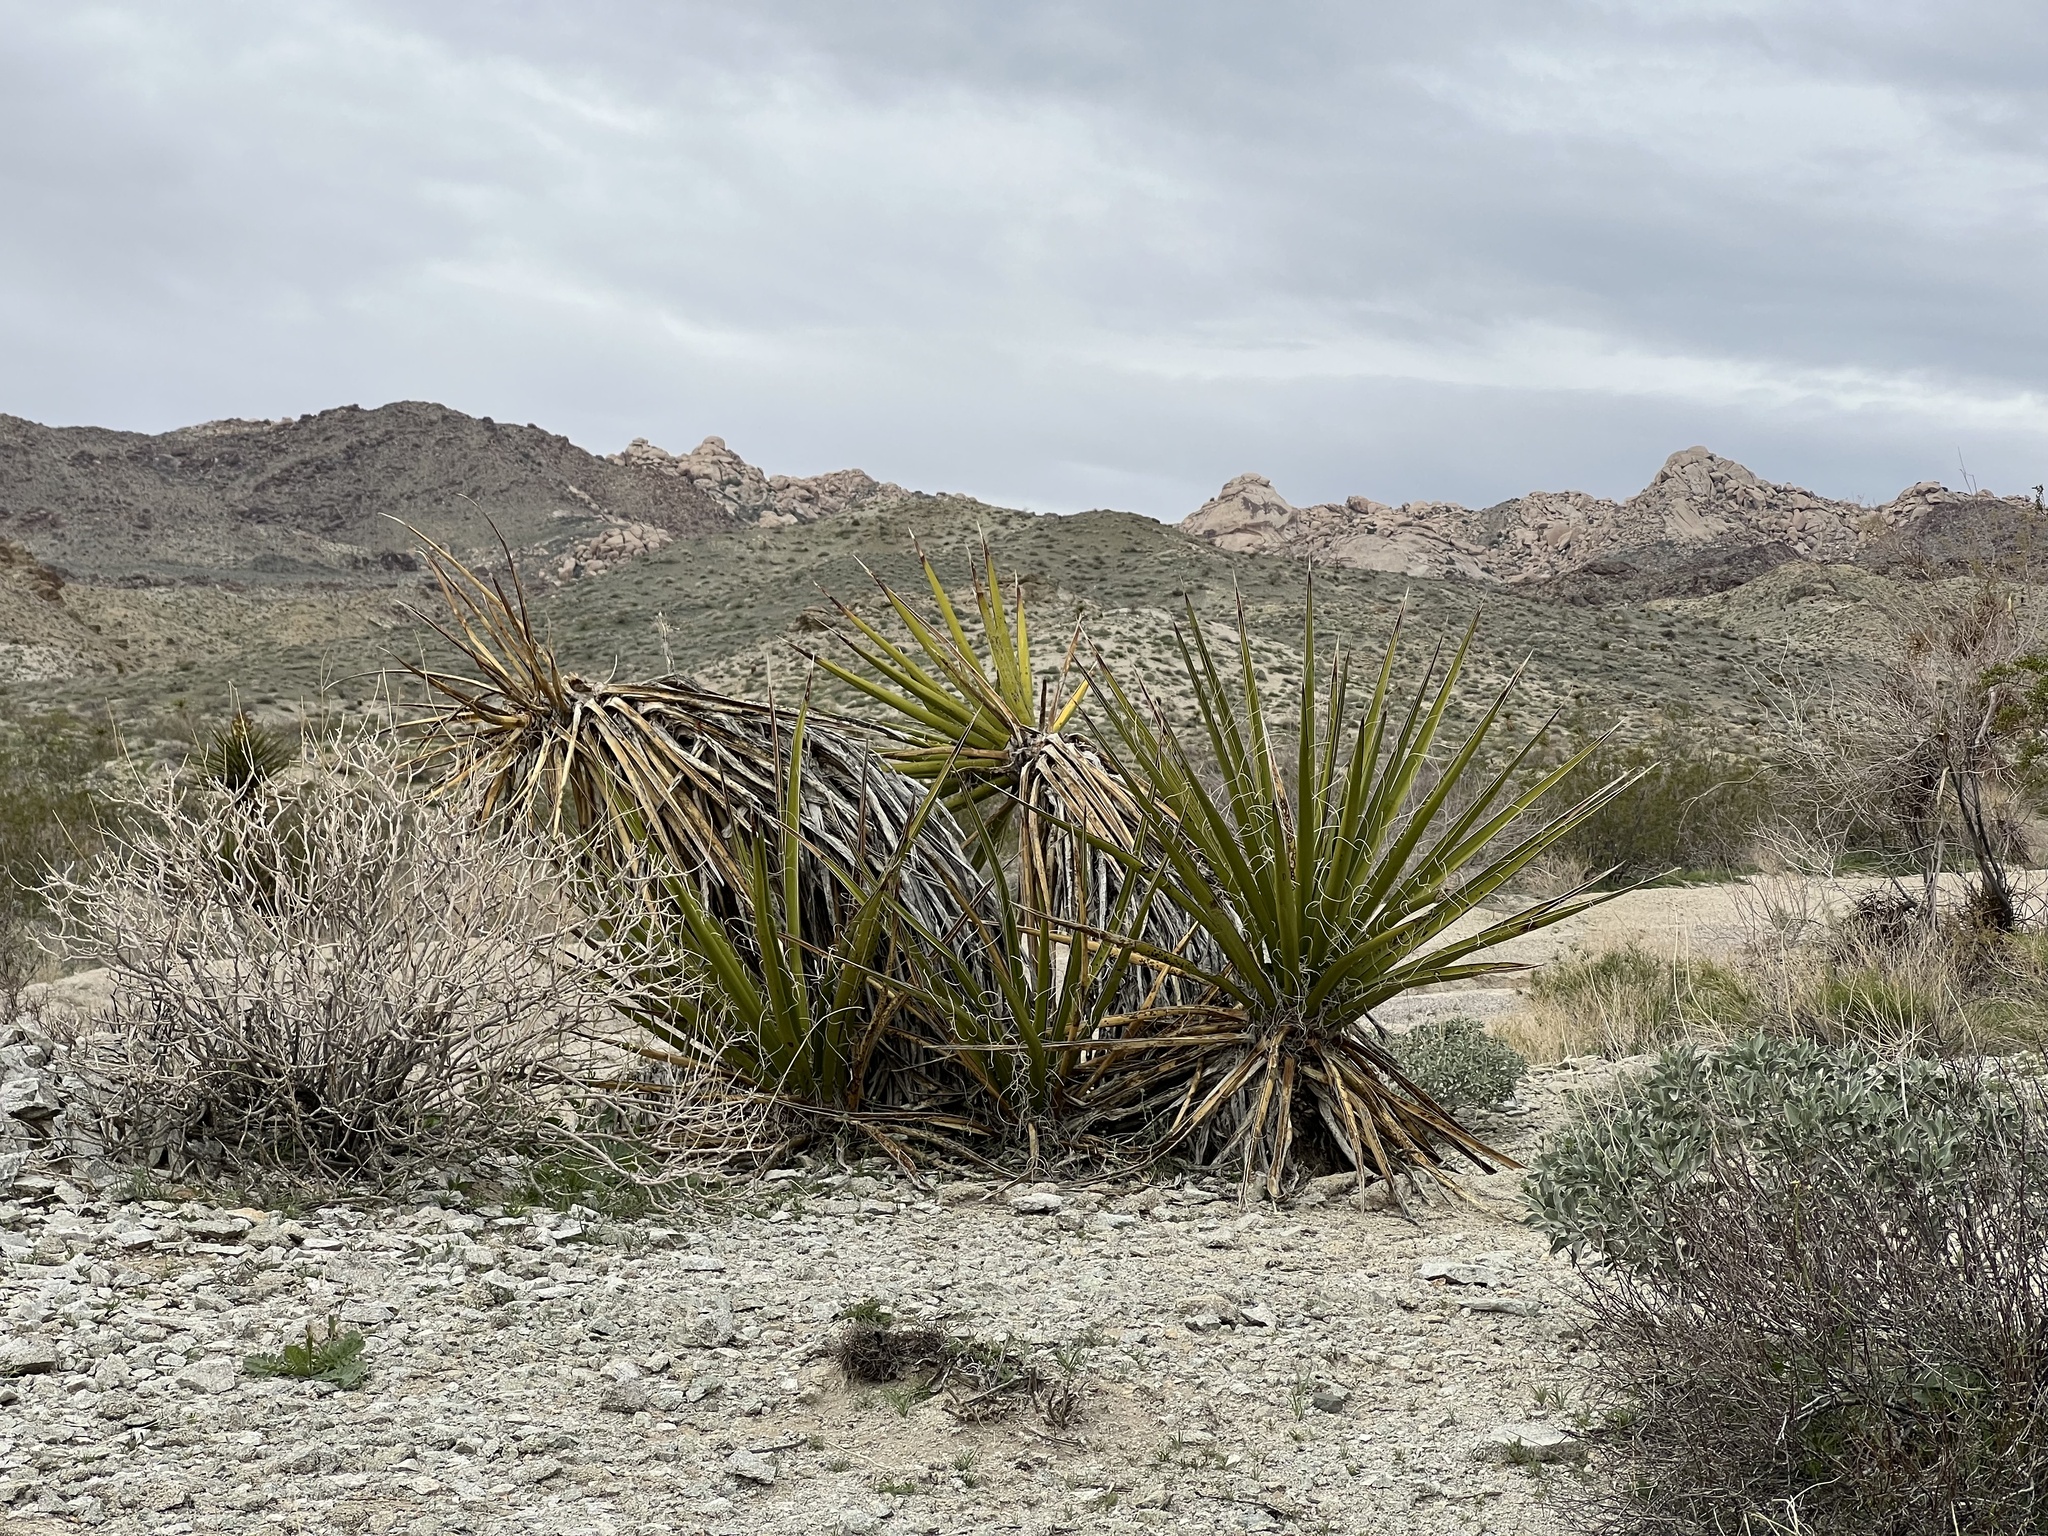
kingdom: Plantae
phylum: Tracheophyta
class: Liliopsida
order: Asparagales
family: Asparagaceae
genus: Yucca
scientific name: Yucca schidigera
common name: Mojave yucca
